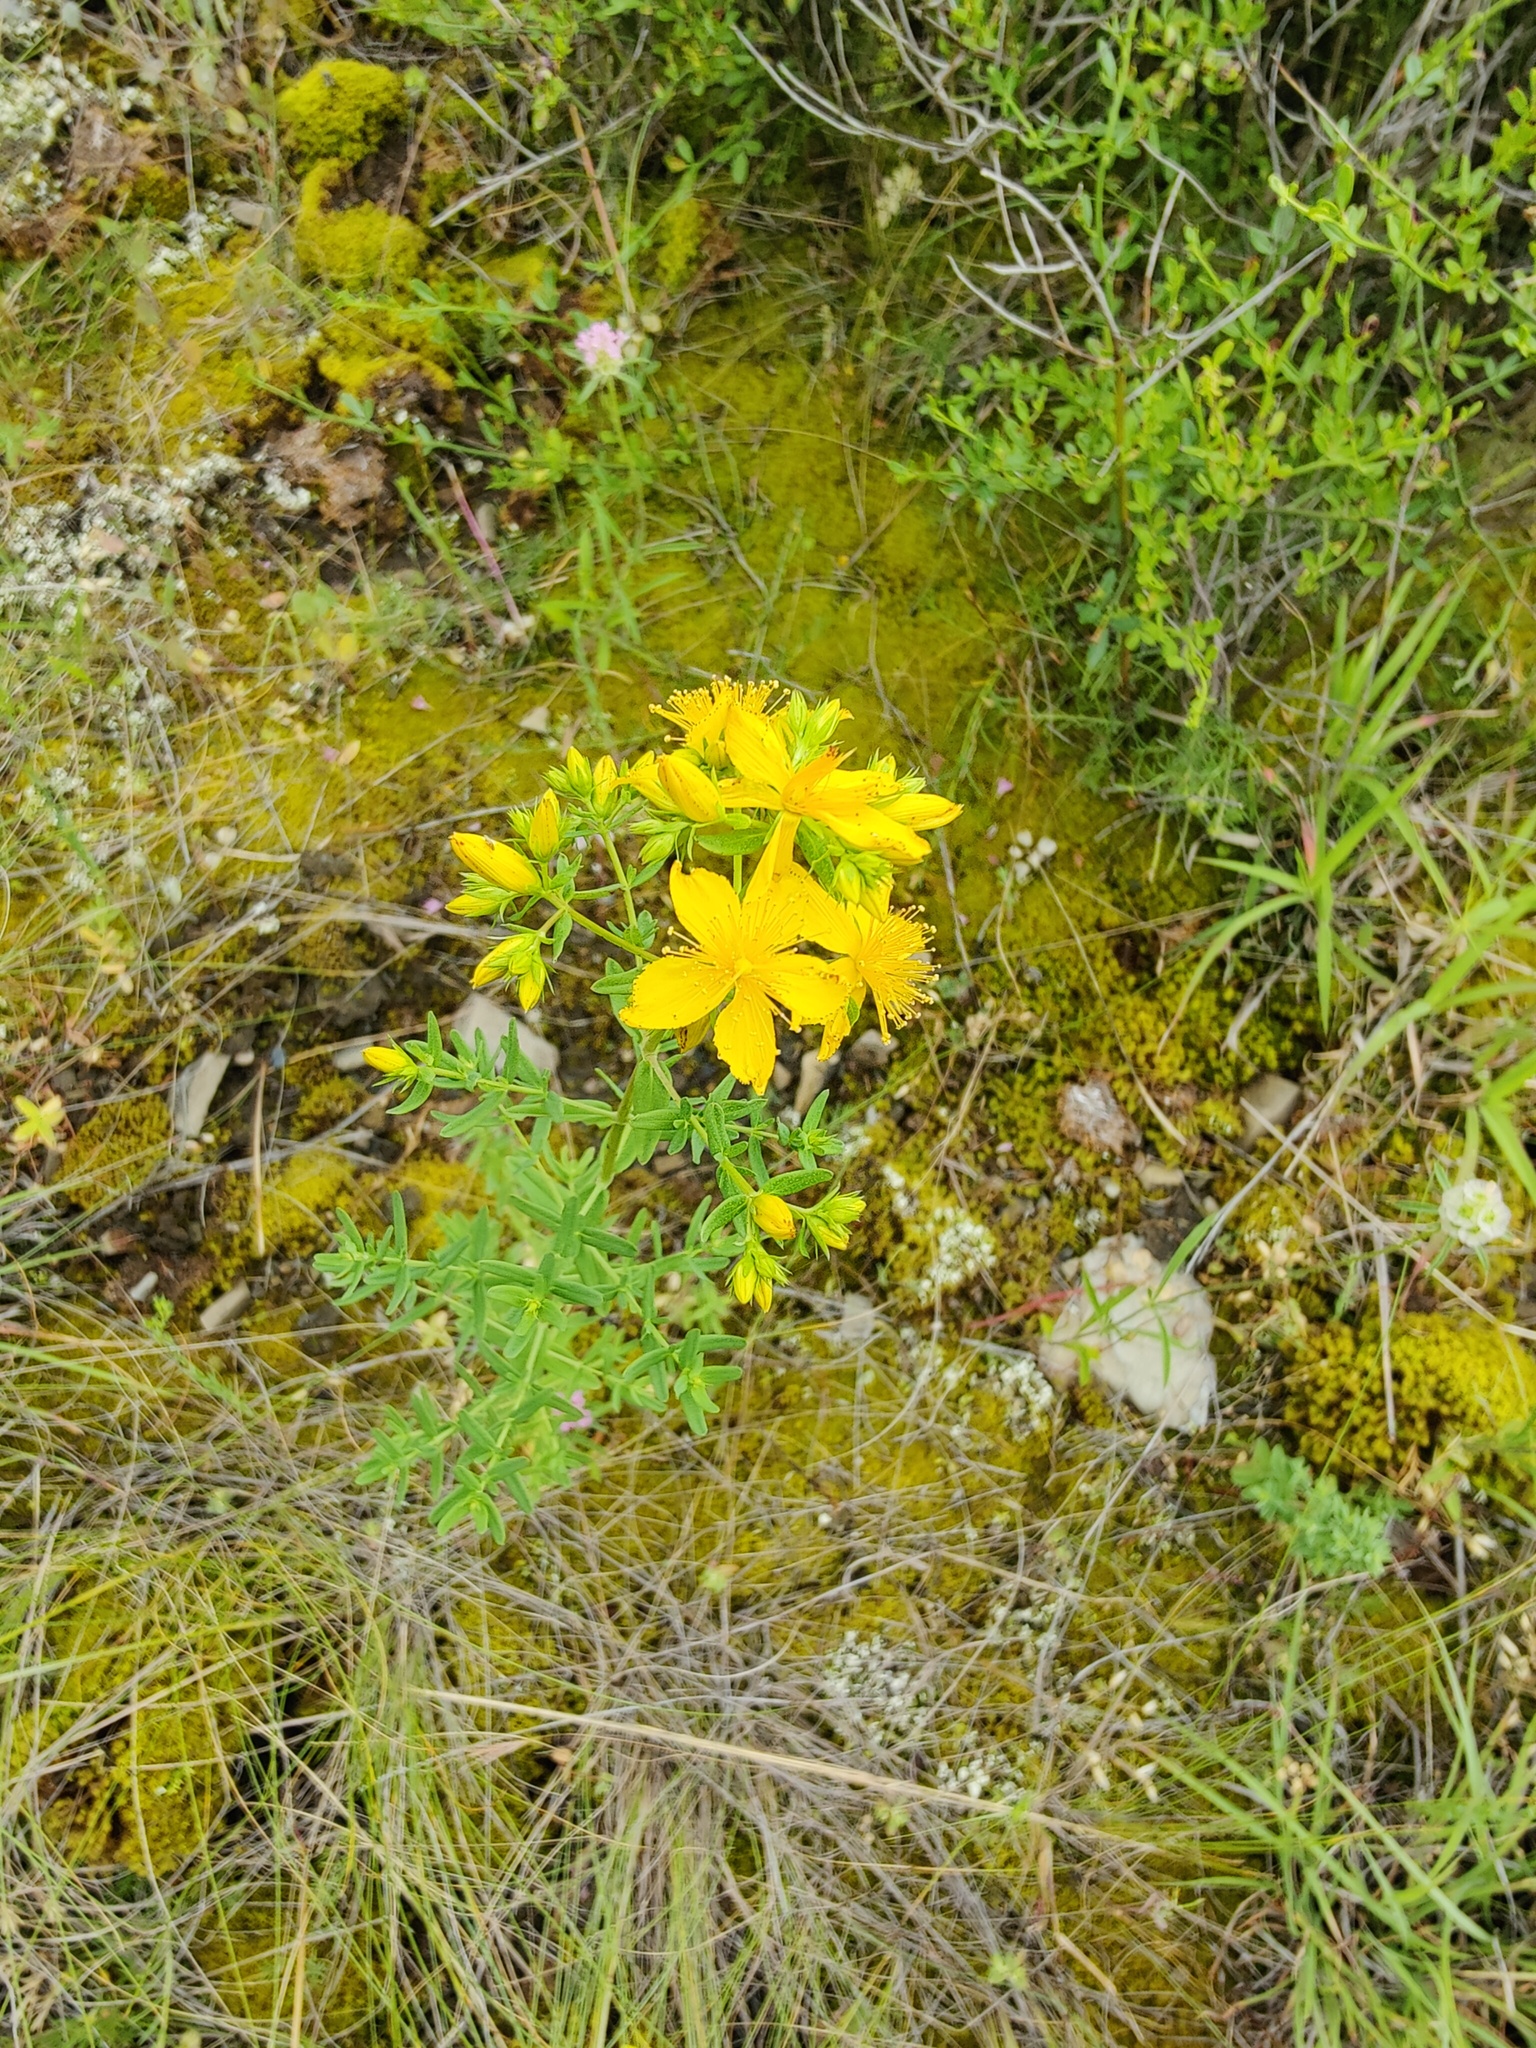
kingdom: Plantae
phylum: Tracheophyta
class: Magnoliopsida
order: Malpighiales
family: Hypericaceae
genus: Hypericum
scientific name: Hypericum perforatum
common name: Common st. johnswort
